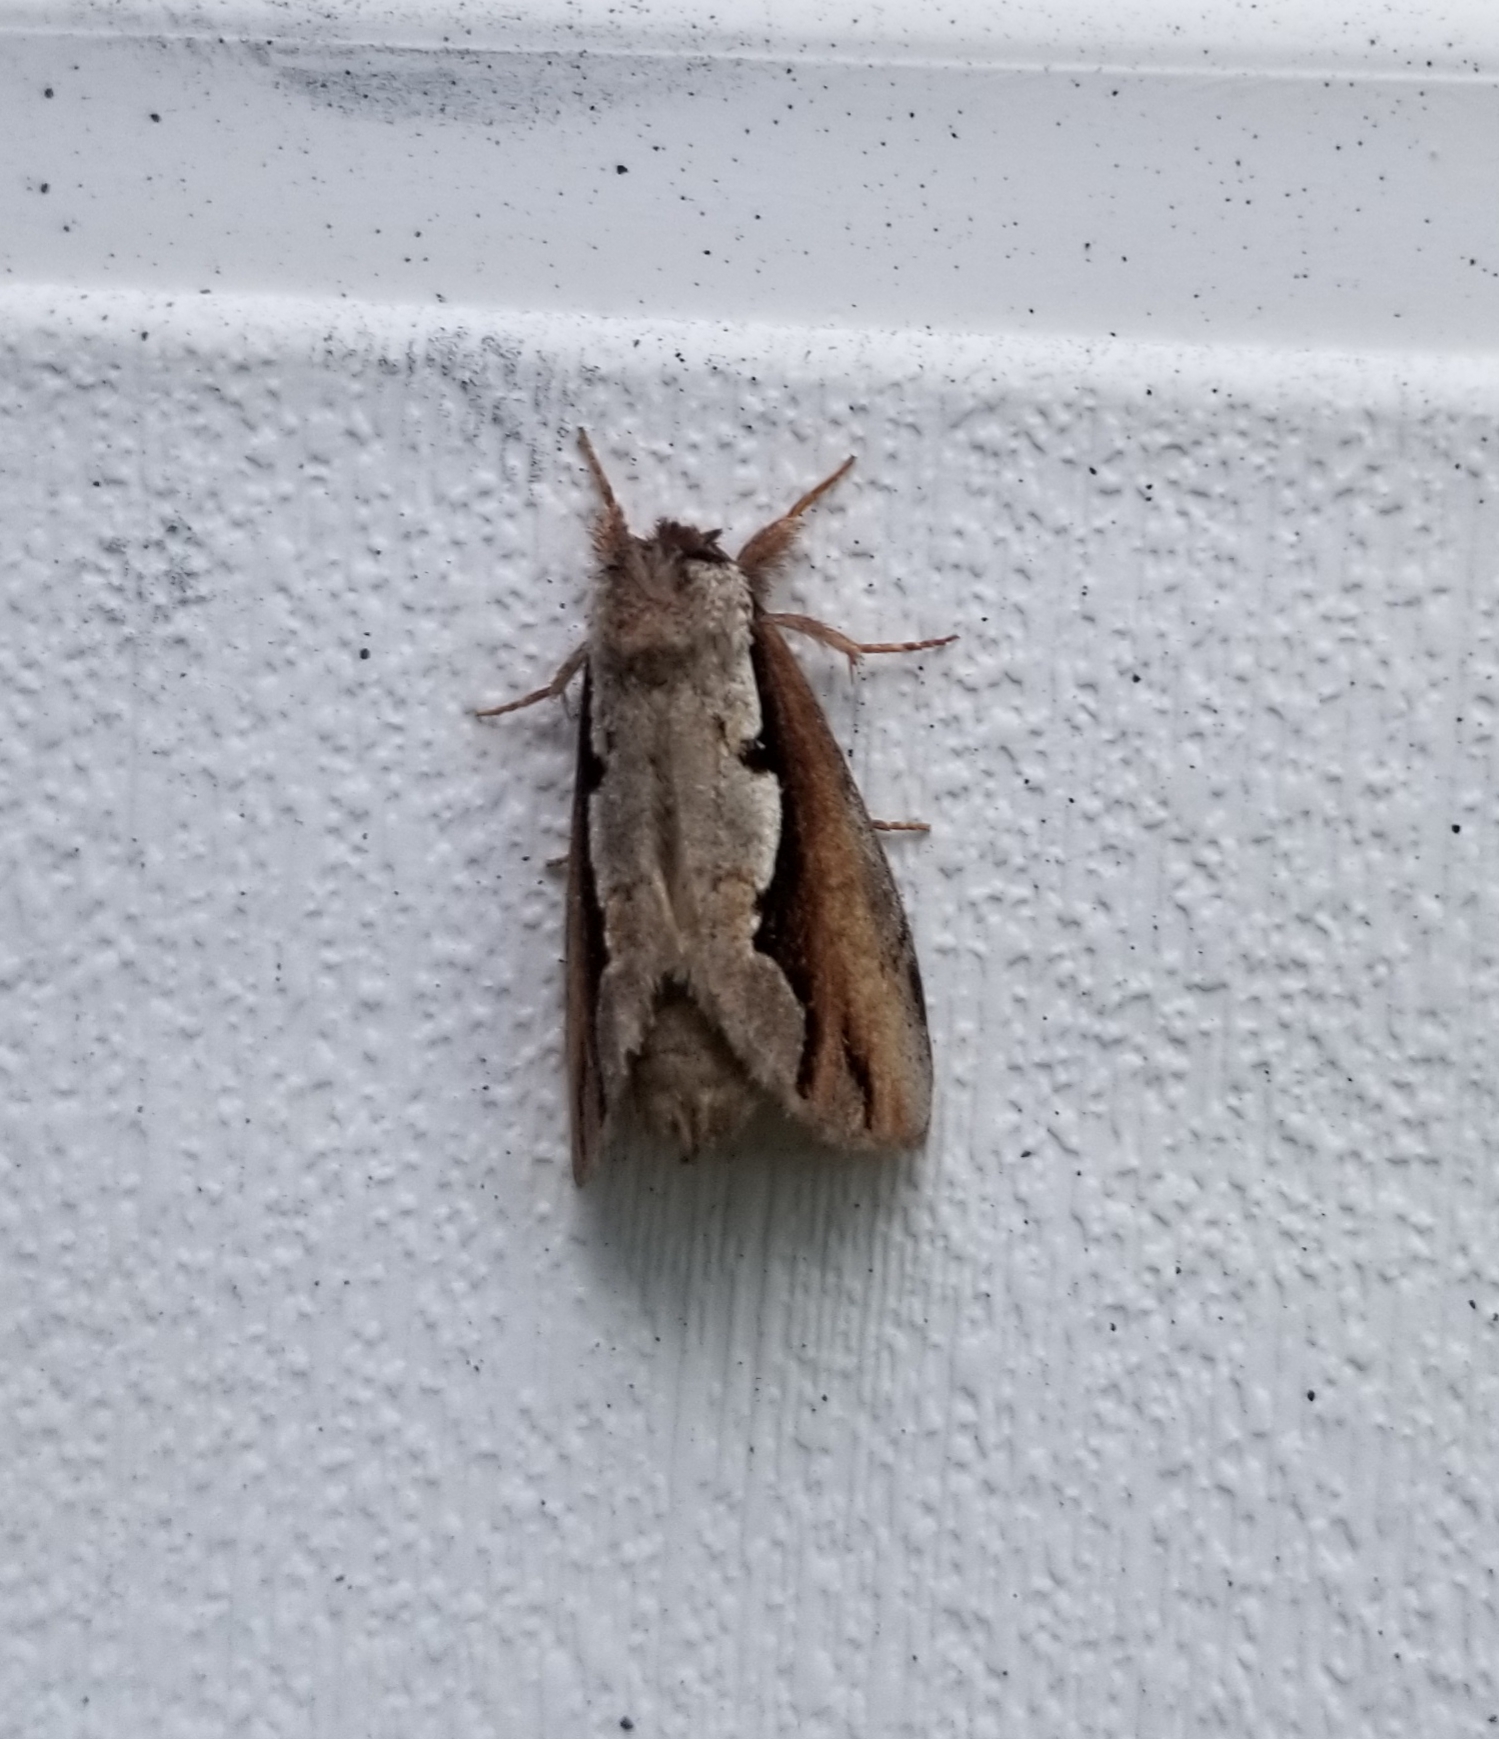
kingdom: Animalia
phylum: Arthropoda
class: Insecta
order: Lepidoptera
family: Notodontidae
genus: Nerice
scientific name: Nerice bidentata
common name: Double-toothed prominent
